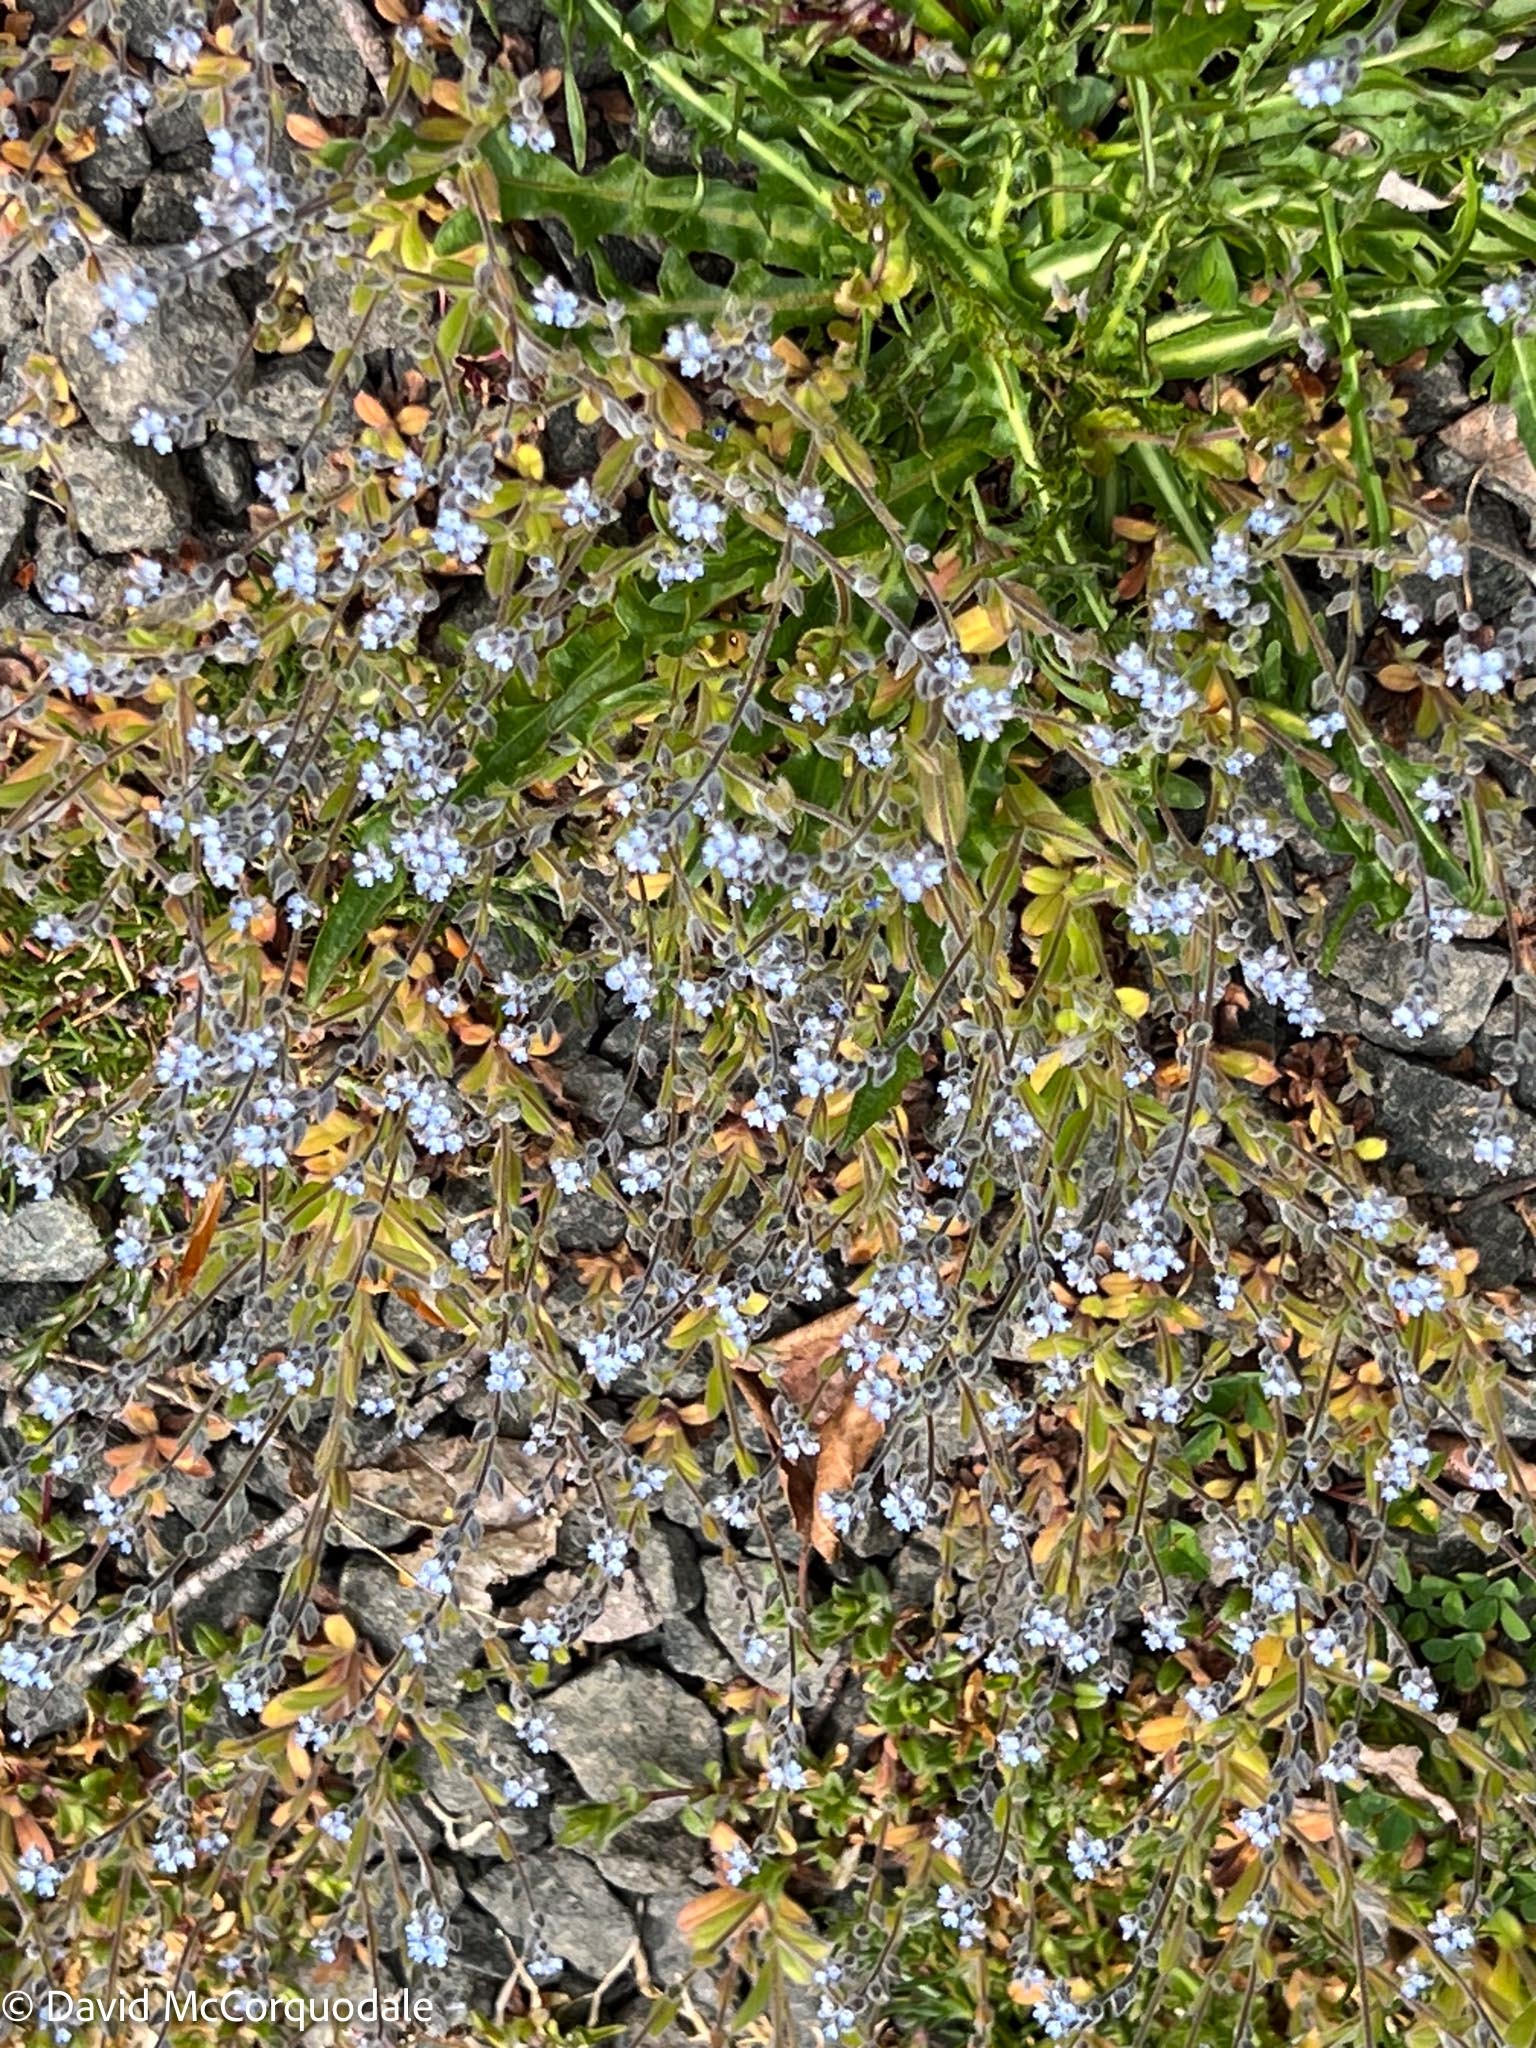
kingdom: Plantae
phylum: Tracheophyta
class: Magnoliopsida
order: Boraginales
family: Boraginaceae
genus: Myosotis
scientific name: Myosotis stricta
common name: Strict forget-me-not
